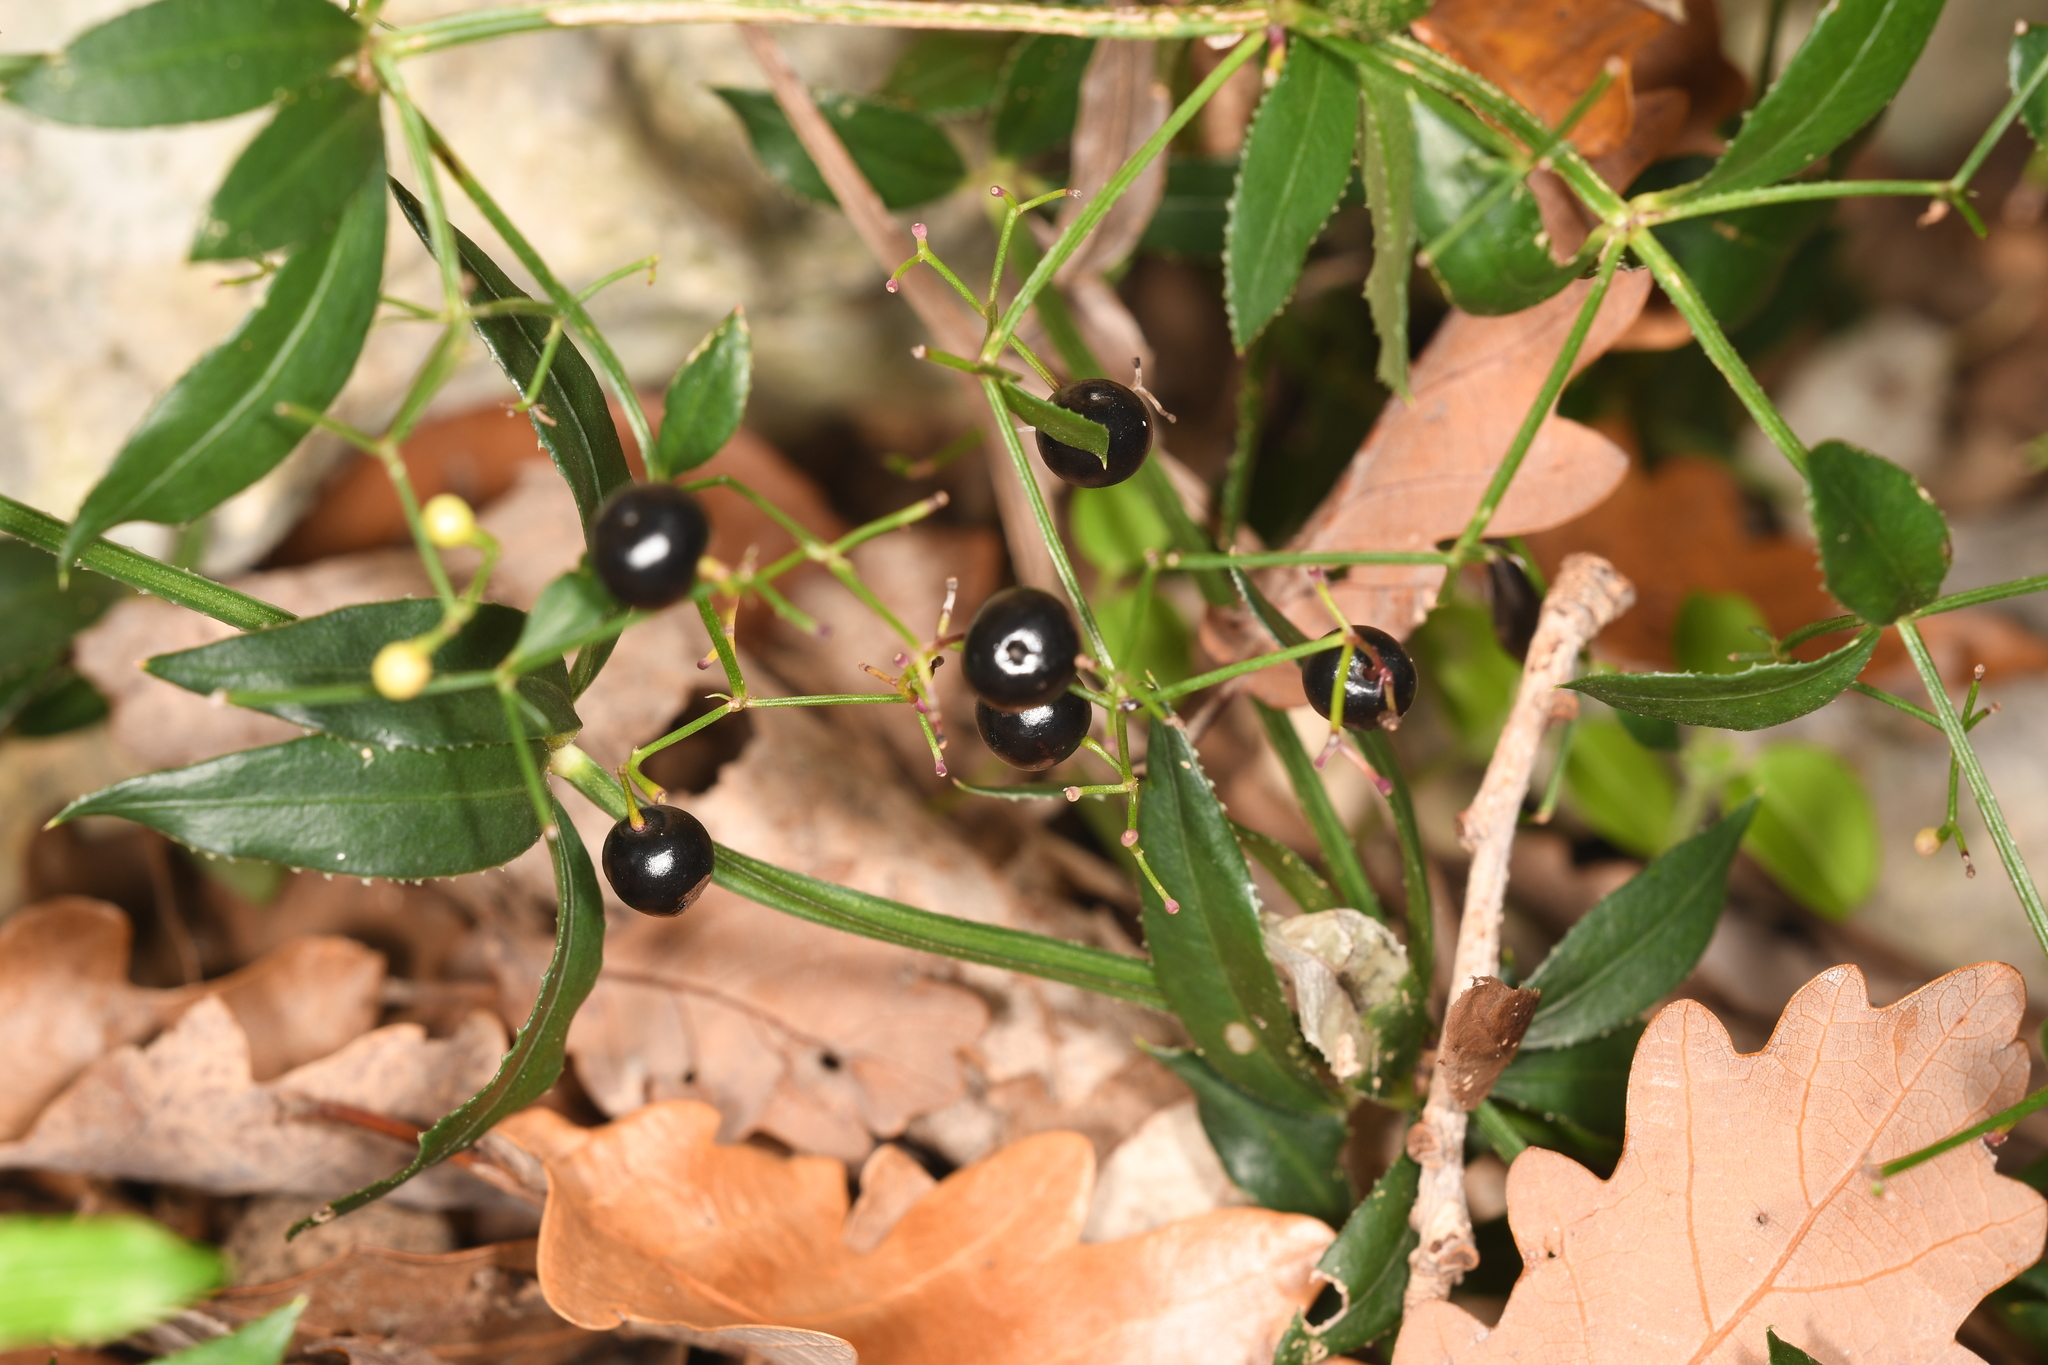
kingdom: Plantae
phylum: Tracheophyta
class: Magnoliopsida
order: Gentianales
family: Rubiaceae
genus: Rubia
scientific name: Rubia peregrina
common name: Wild madder
